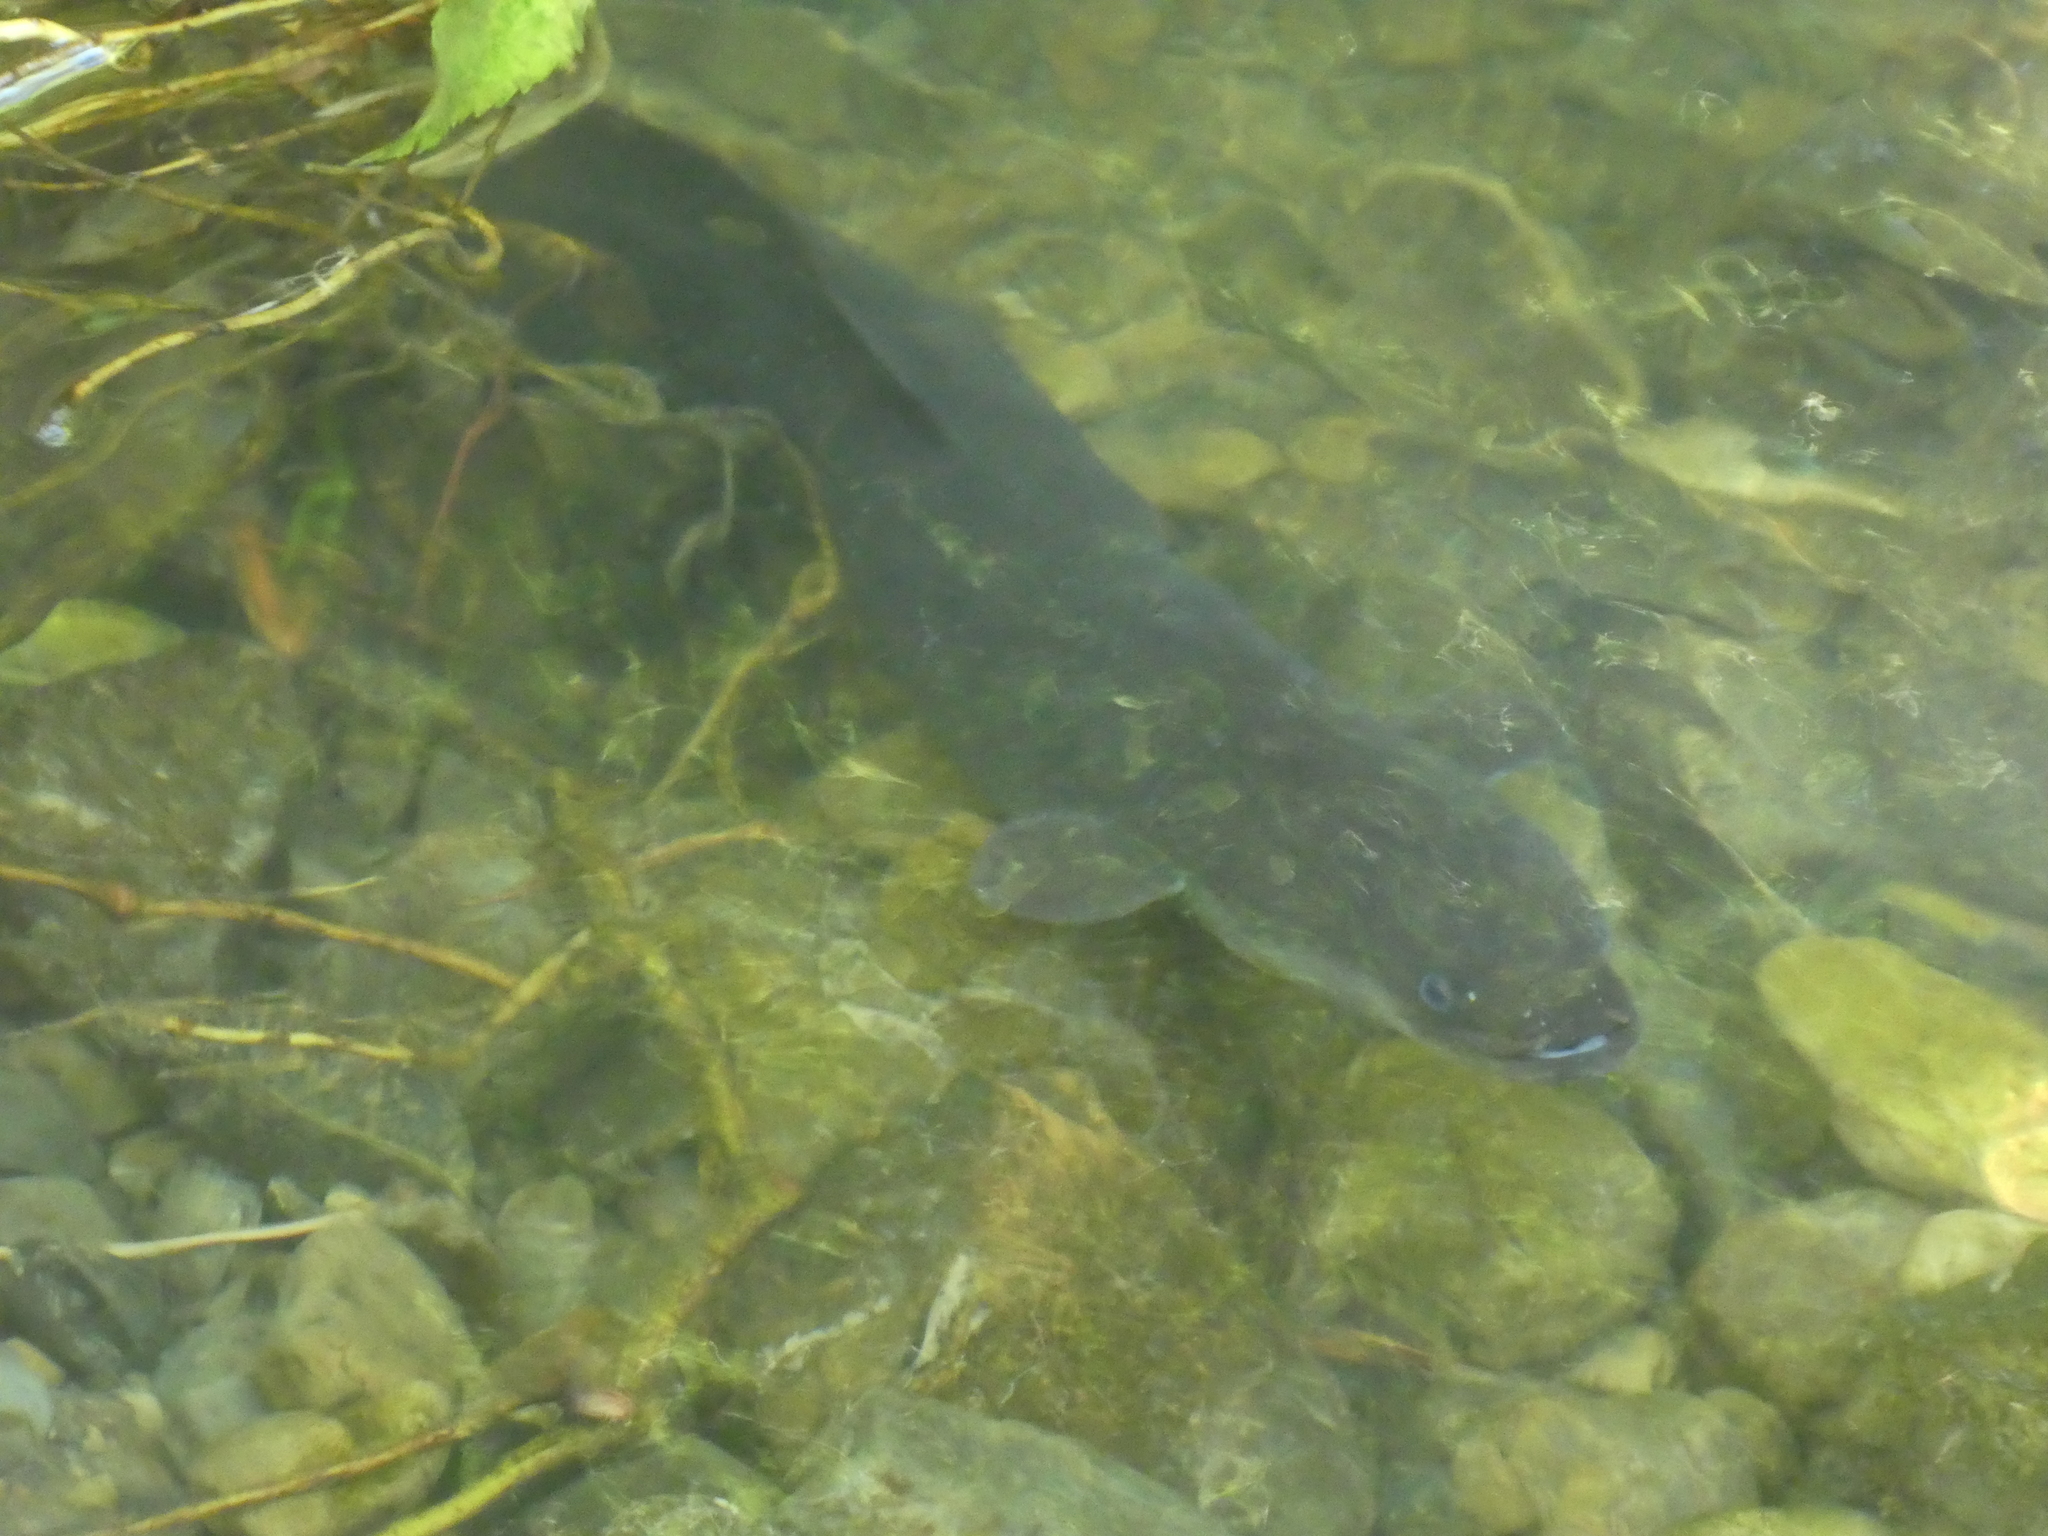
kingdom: Animalia
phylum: Chordata
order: Anguilliformes
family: Anguillidae
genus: Anguilla
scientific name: Anguilla dieffenbachii
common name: New zealand longfin eel
